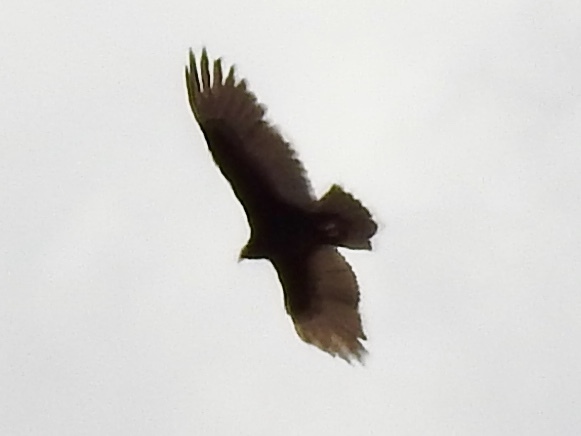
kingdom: Animalia
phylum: Chordata
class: Aves
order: Accipitriformes
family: Cathartidae
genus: Cathartes
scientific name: Cathartes aura
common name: Turkey vulture
